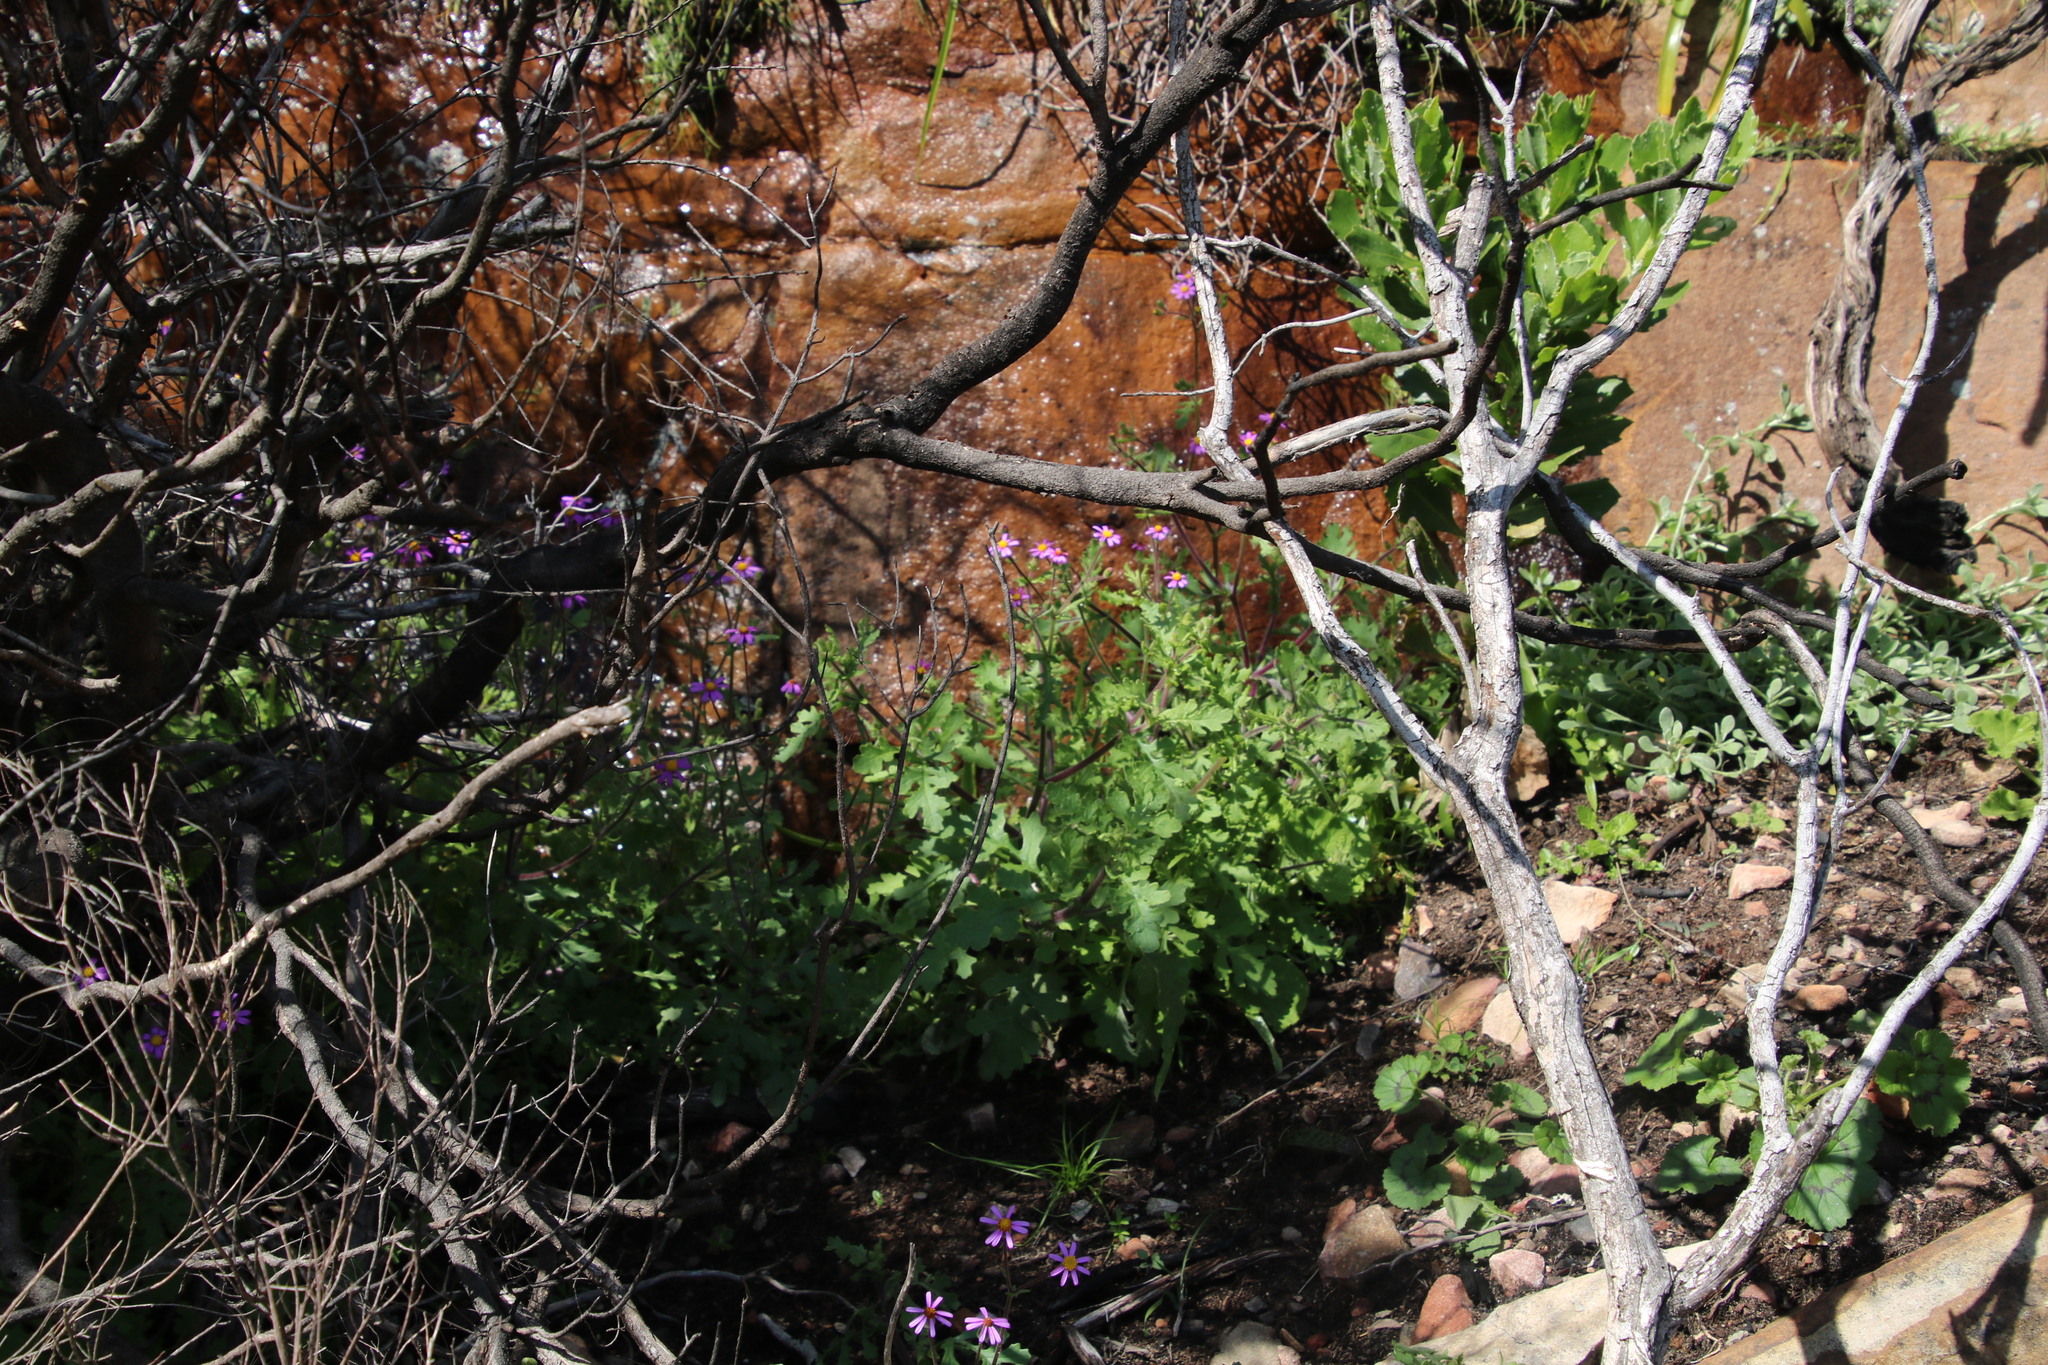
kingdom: Plantae
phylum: Tracheophyta
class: Magnoliopsida
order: Asterales
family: Asteraceae
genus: Senecio
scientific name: Senecio arenarius
